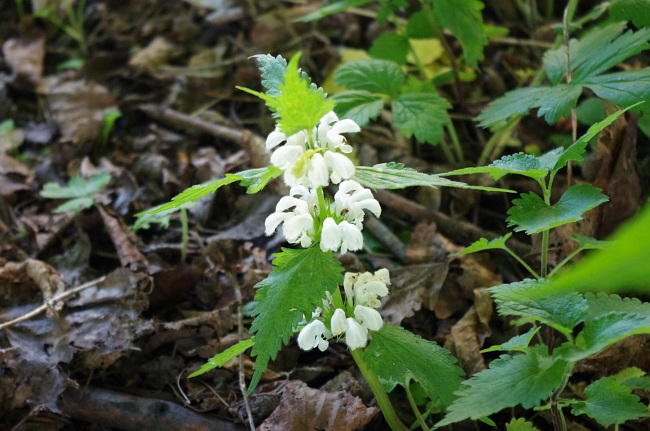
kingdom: Plantae
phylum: Tracheophyta
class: Magnoliopsida
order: Lamiales
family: Lamiaceae
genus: Lamium
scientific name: Lamium album
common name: White dead-nettle
